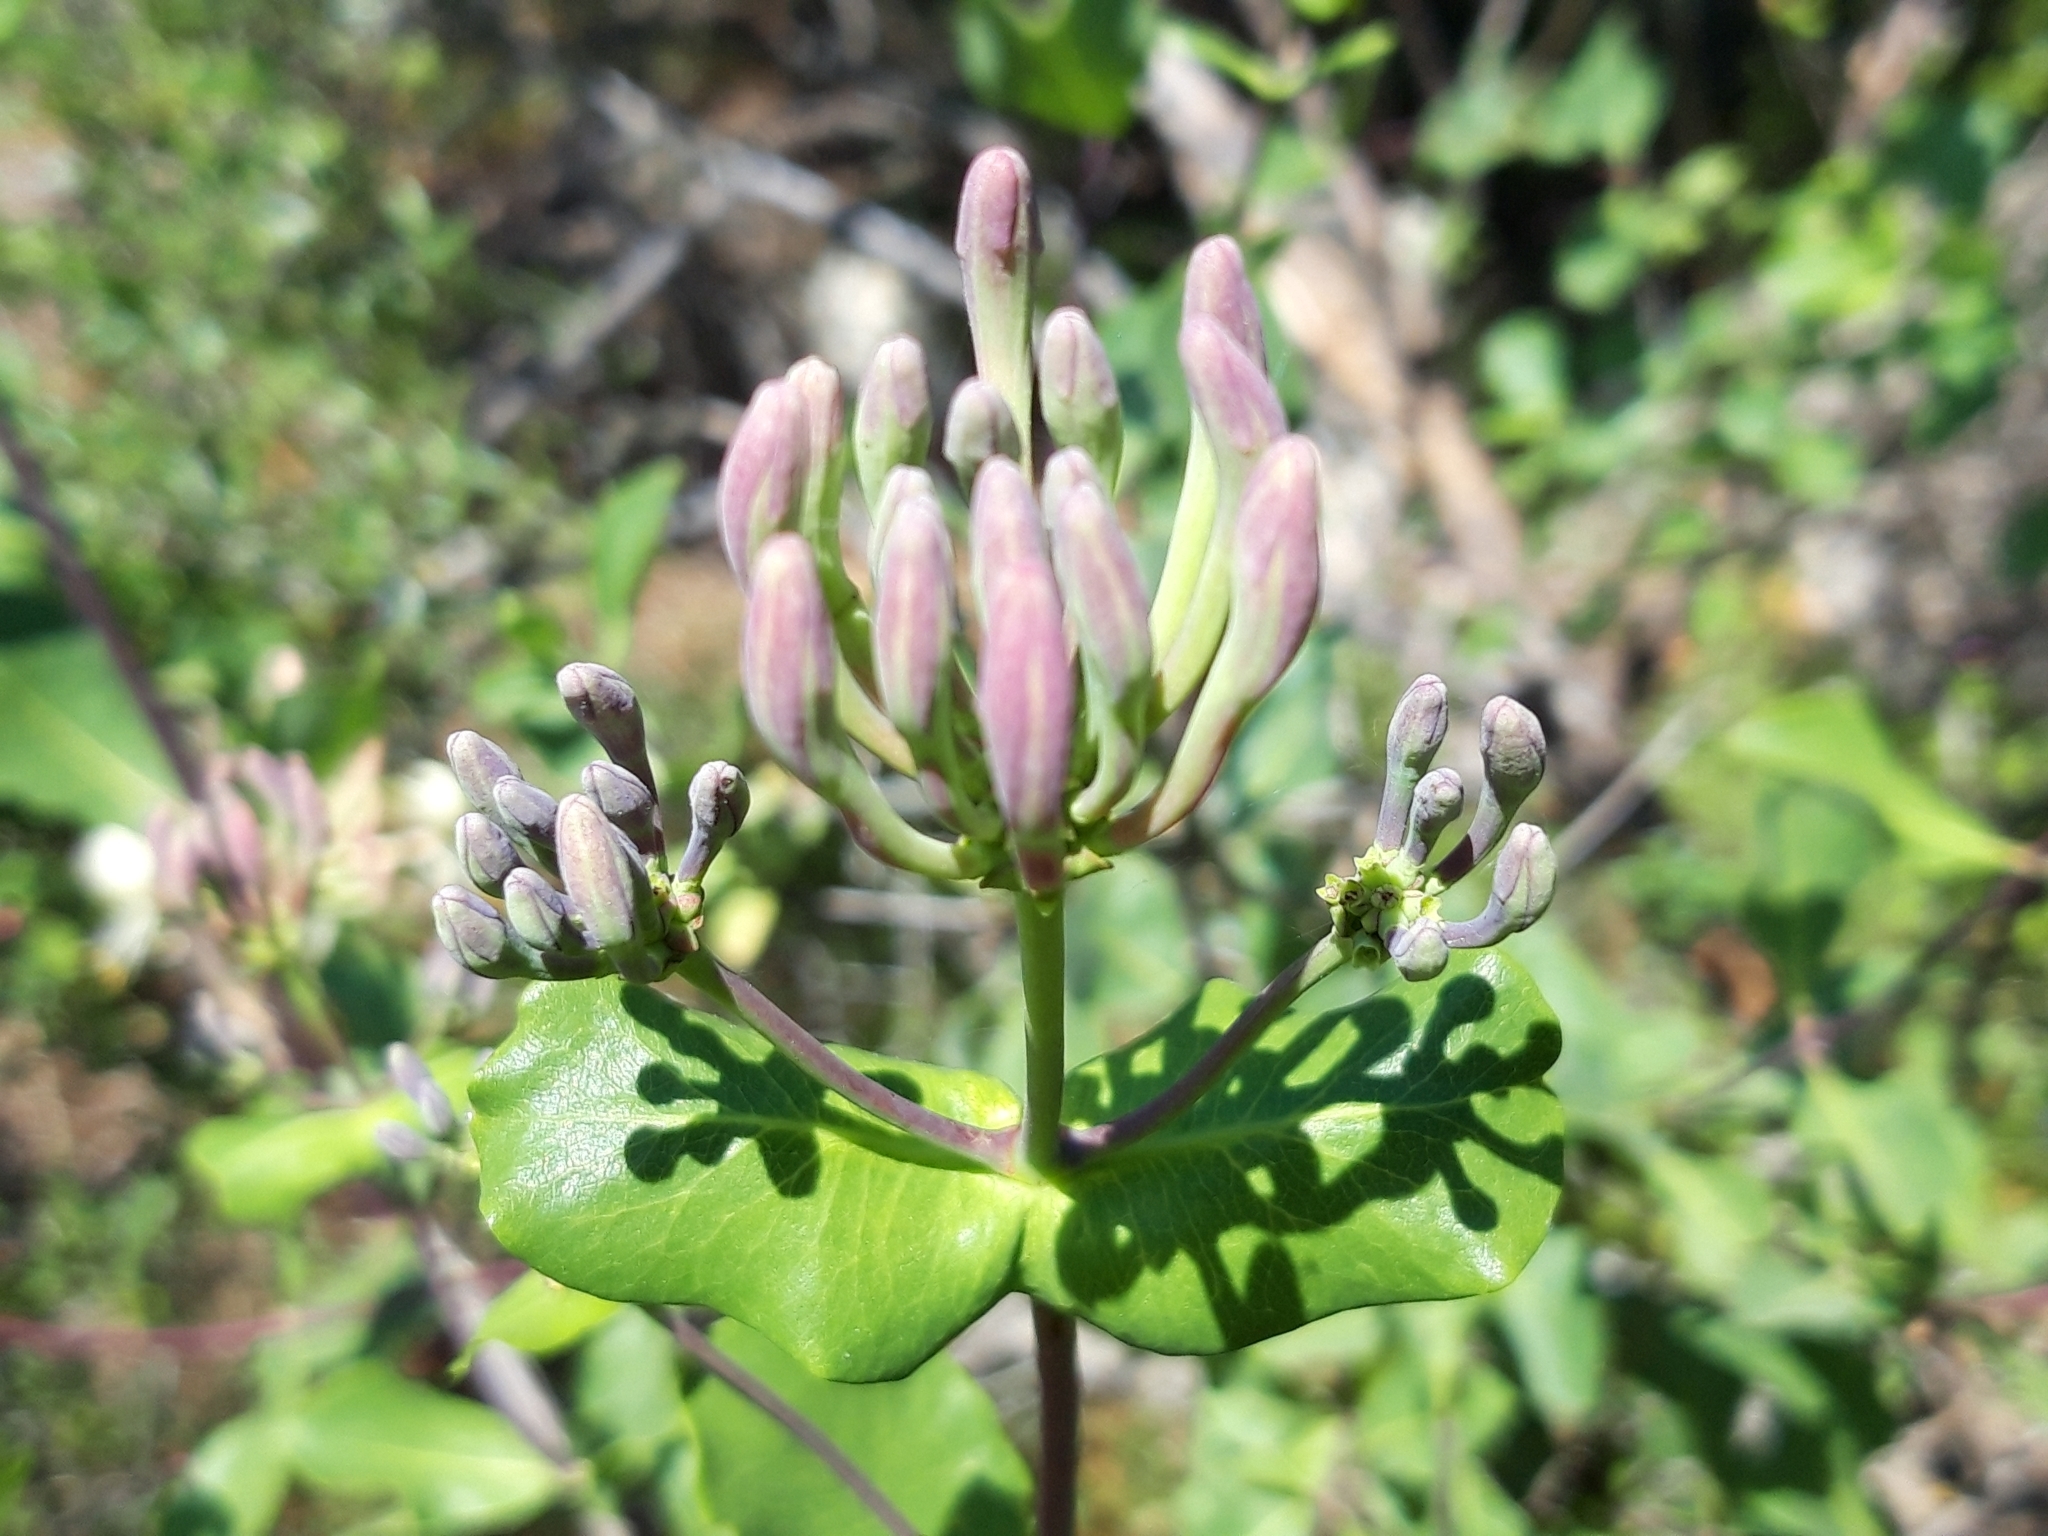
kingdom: Plantae
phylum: Tracheophyta
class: Magnoliopsida
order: Dipsacales
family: Caprifoliaceae
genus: Lonicera
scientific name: Lonicera etrusca
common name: Etruscan honeysuckle
